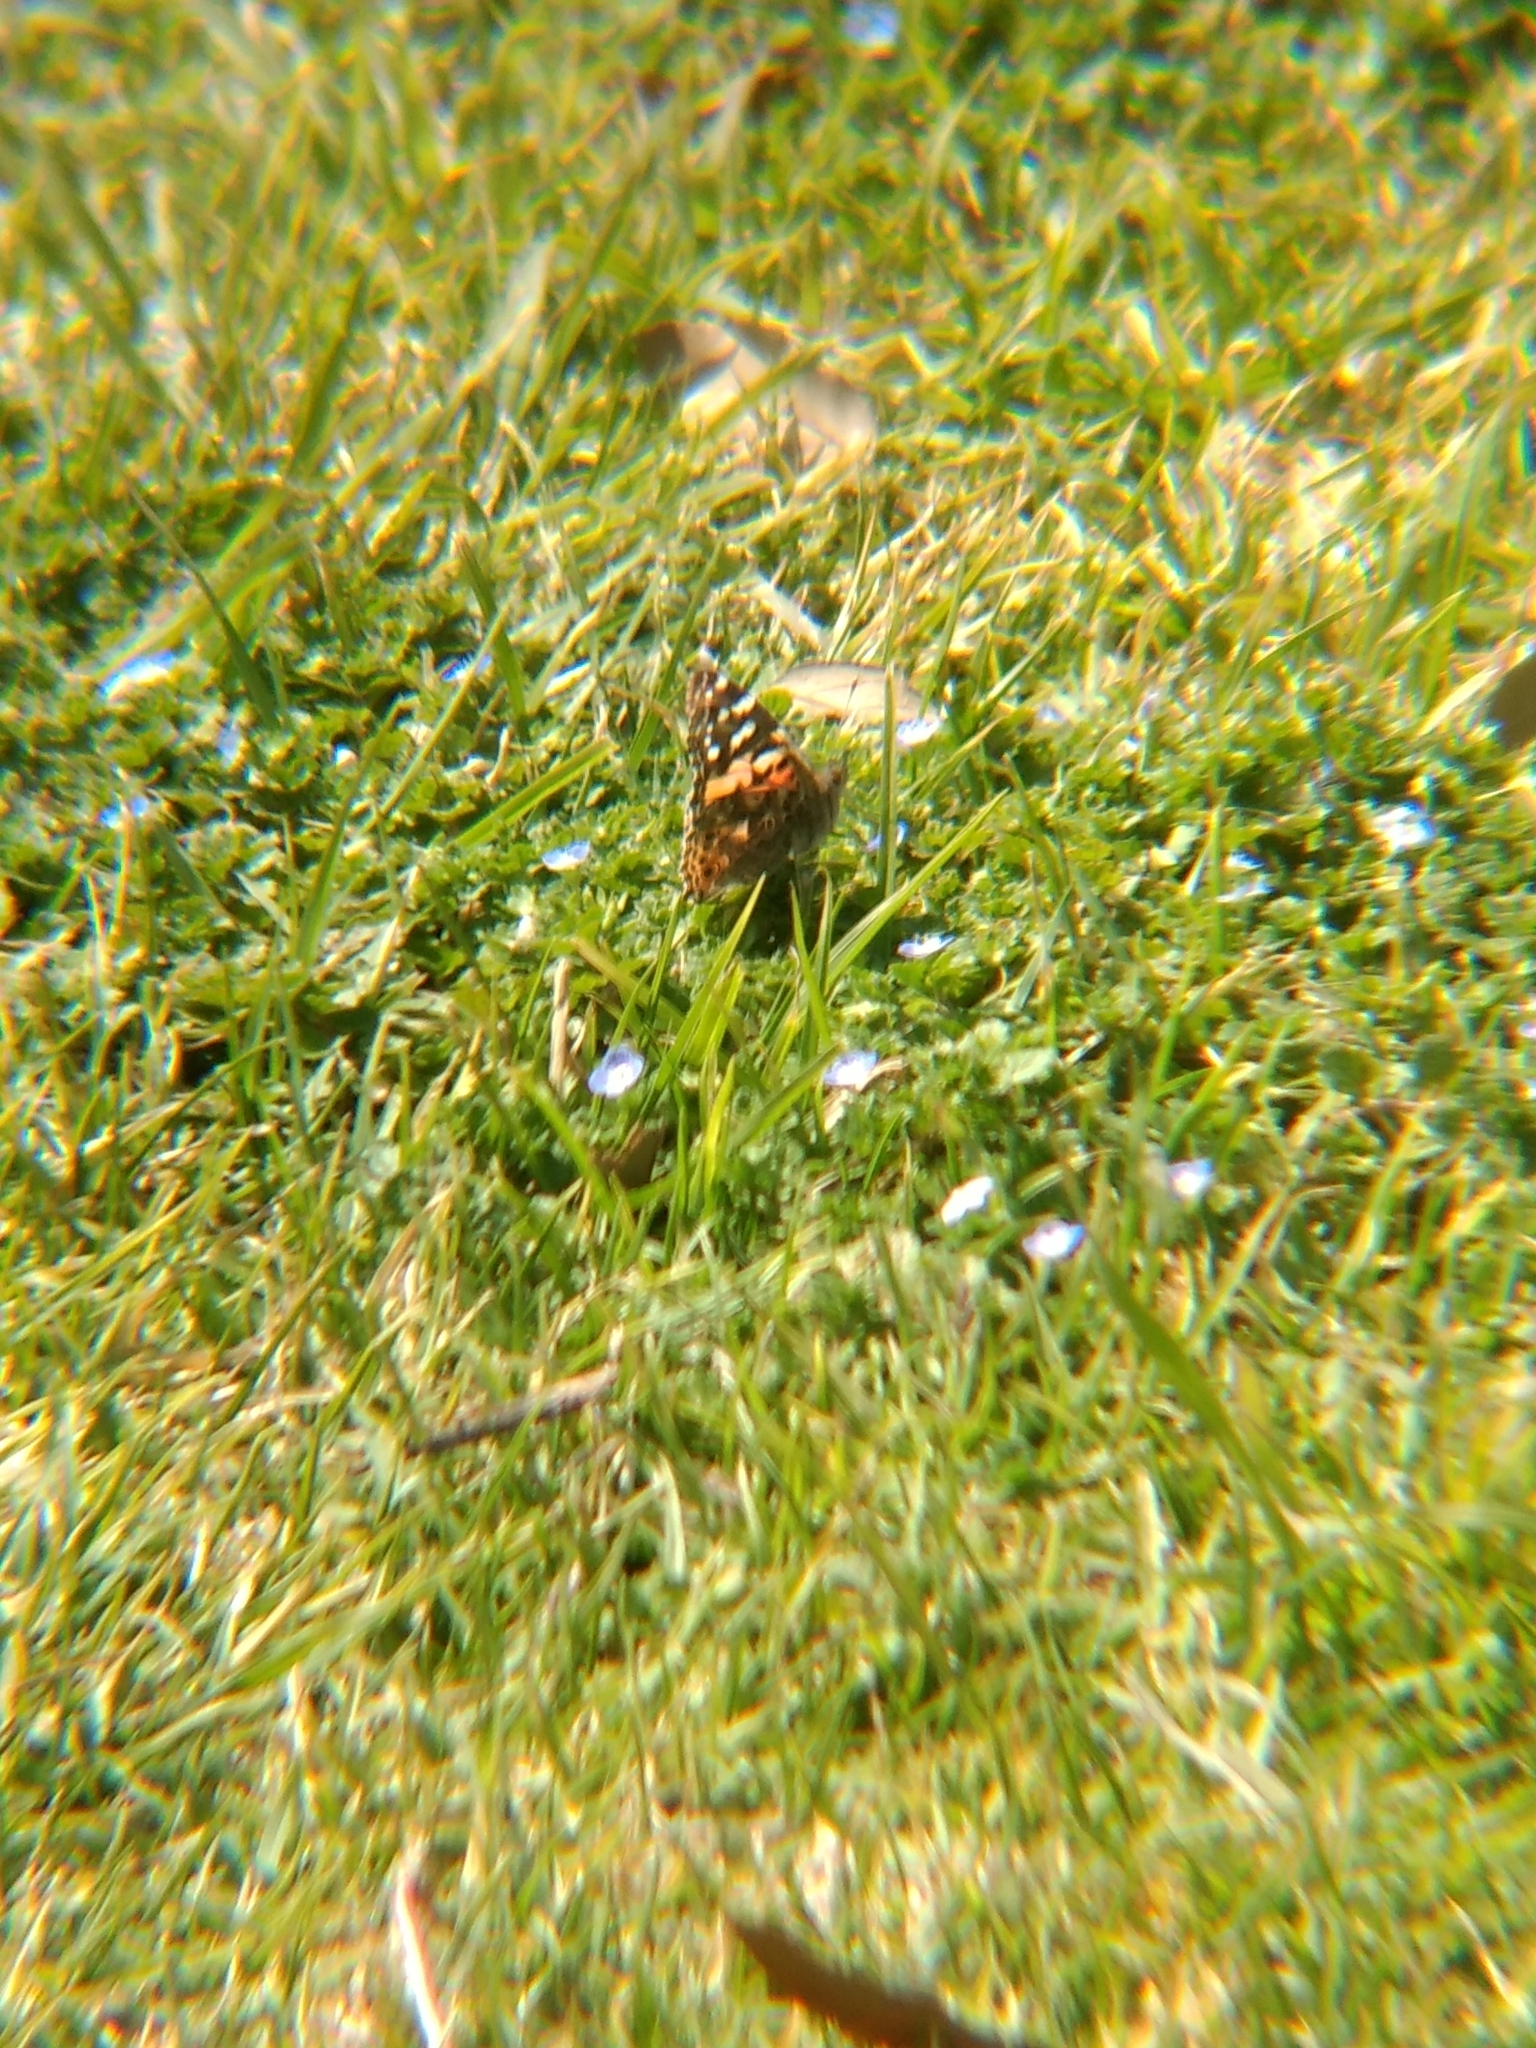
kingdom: Animalia
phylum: Arthropoda
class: Insecta
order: Lepidoptera
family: Nymphalidae
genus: Vanessa
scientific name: Vanessa cardui
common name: Painted lady
